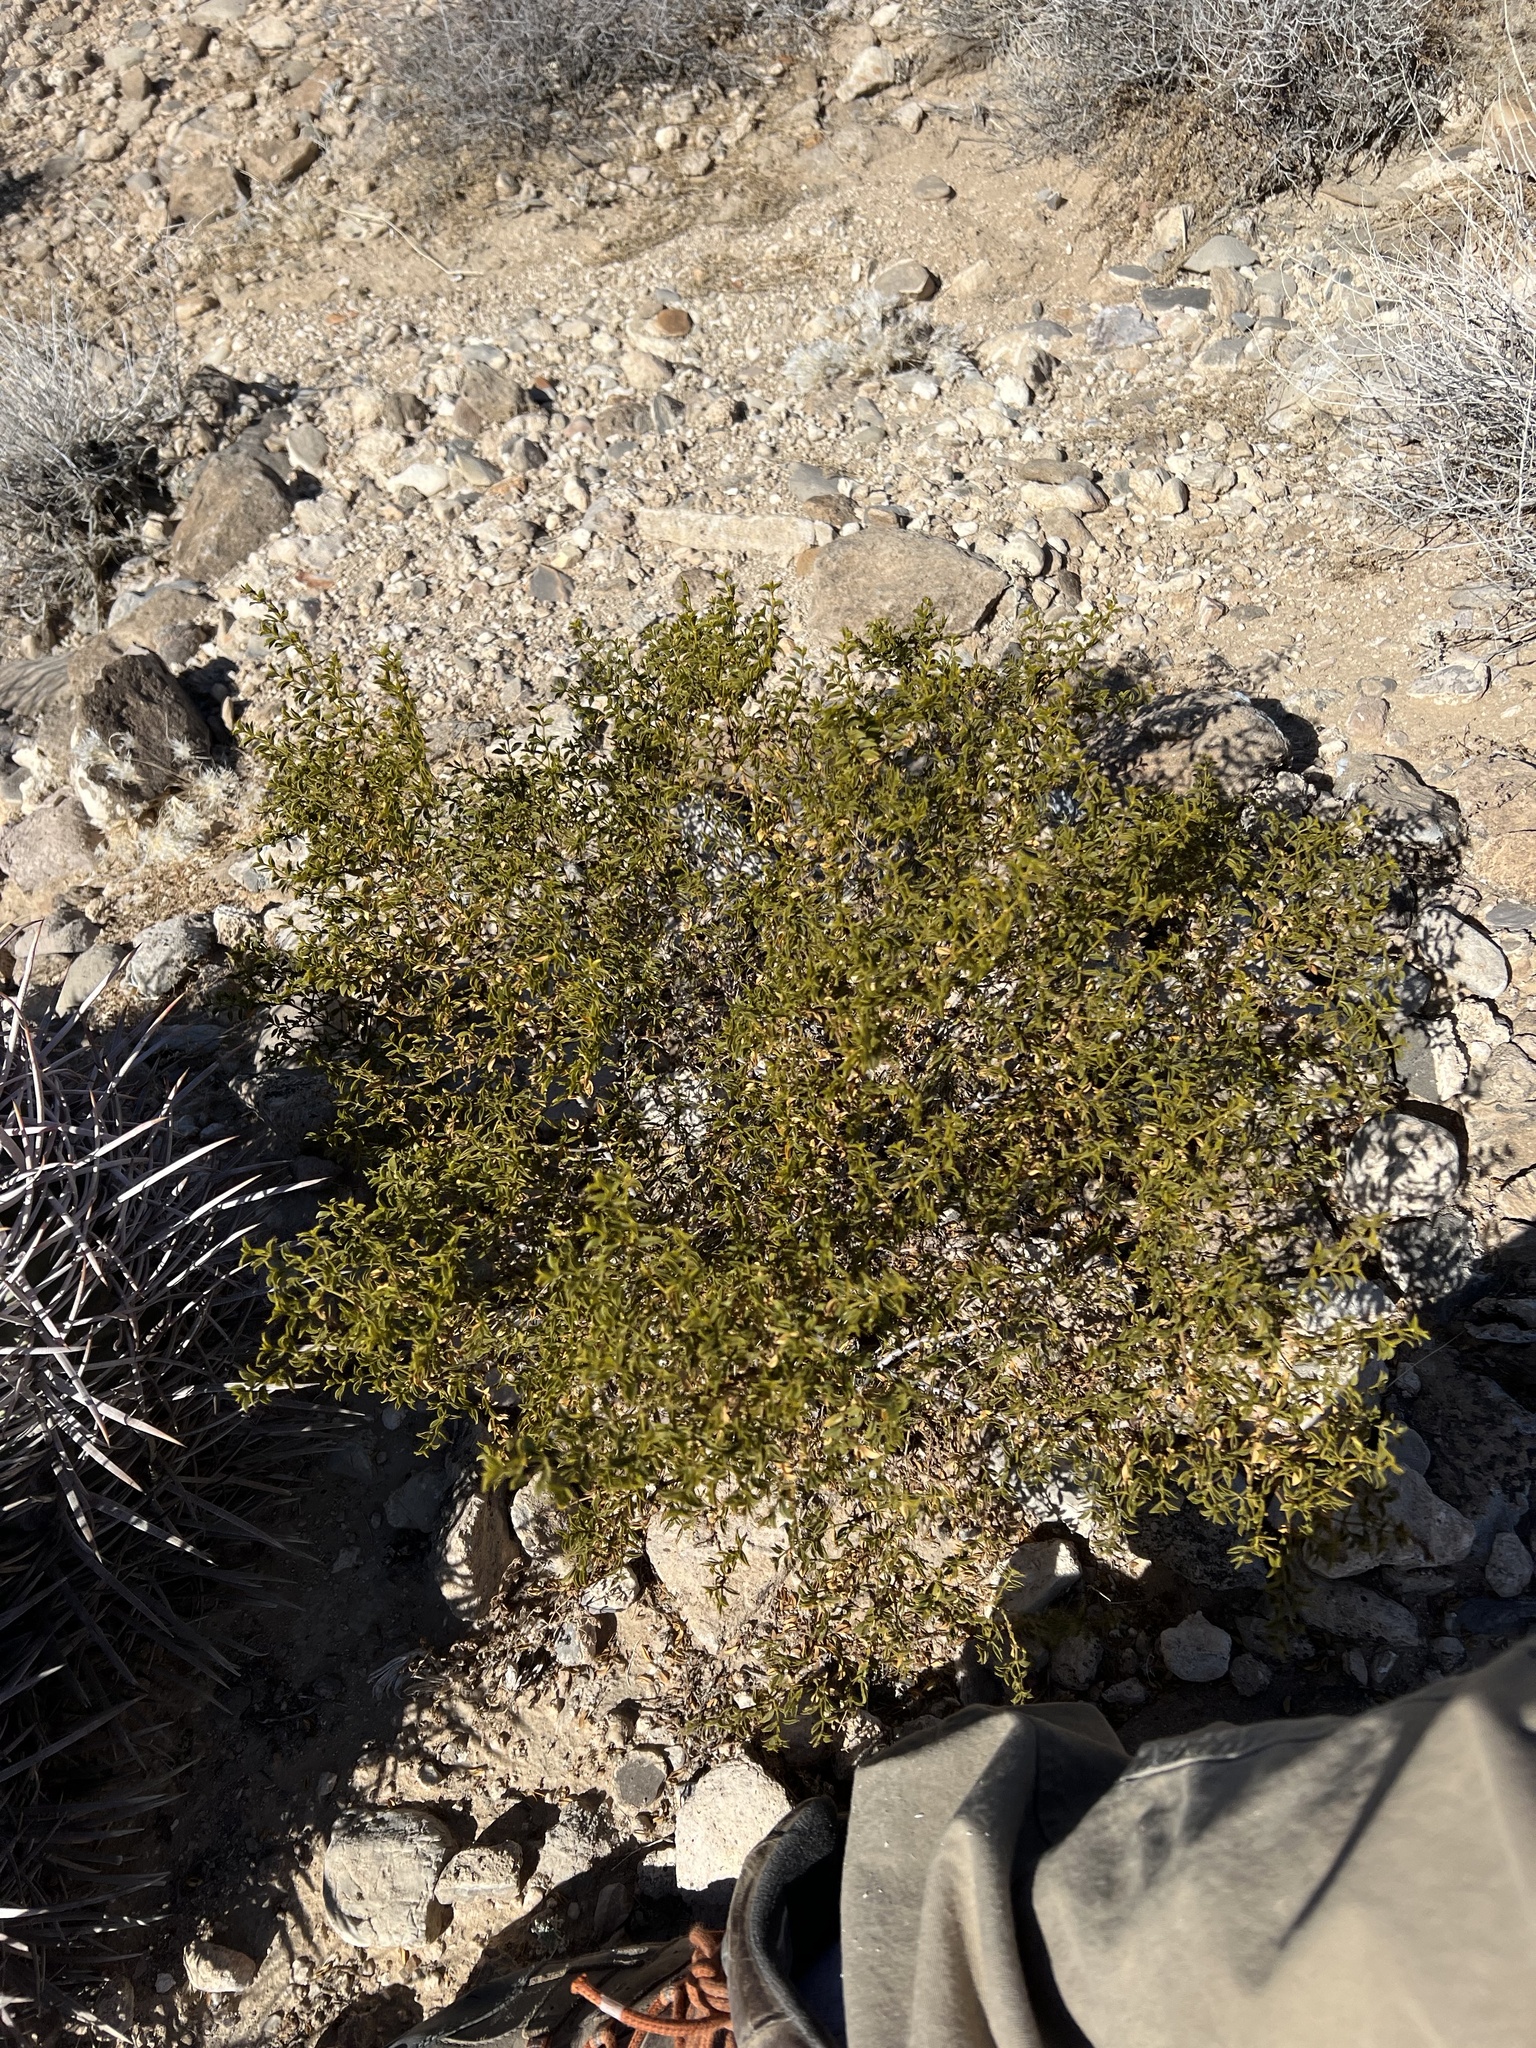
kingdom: Plantae
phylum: Tracheophyta
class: Magnoliopsida
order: Zygophyllales
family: Zygophyllaceae
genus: Larrea
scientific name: Larrea tridentata
